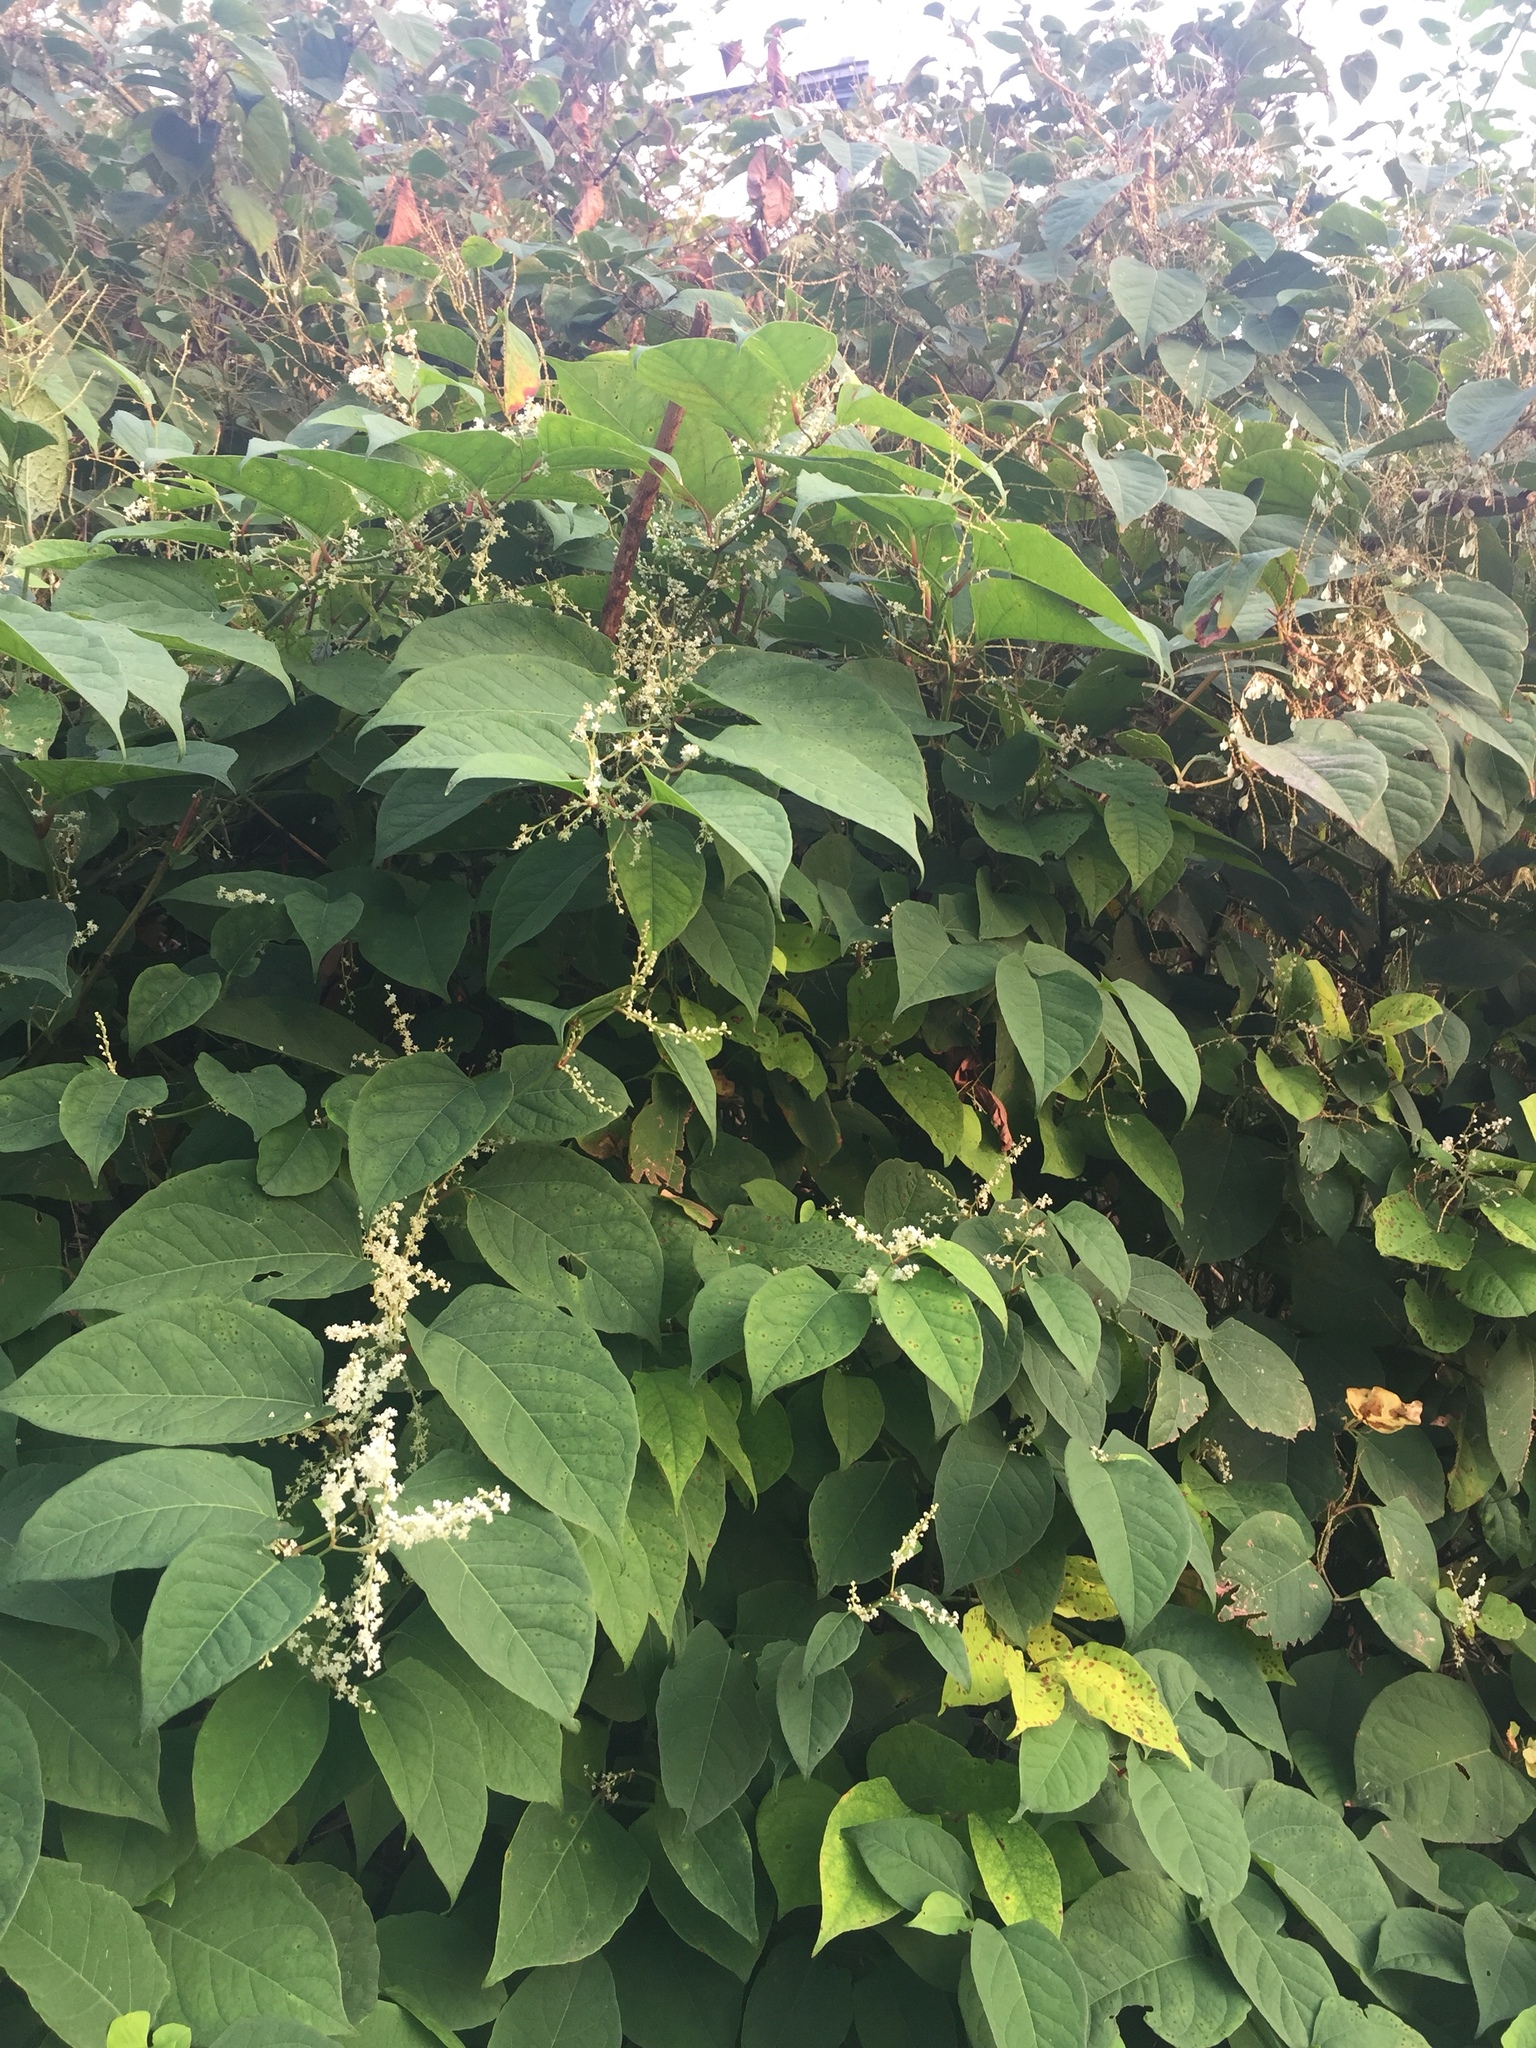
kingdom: Plantae
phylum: Tracheophyta
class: Magnoliopsida
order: Caryophyllales
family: Polygonaceae
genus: Reynoutria
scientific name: Reynoutria japonica
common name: Japanese knotweed
